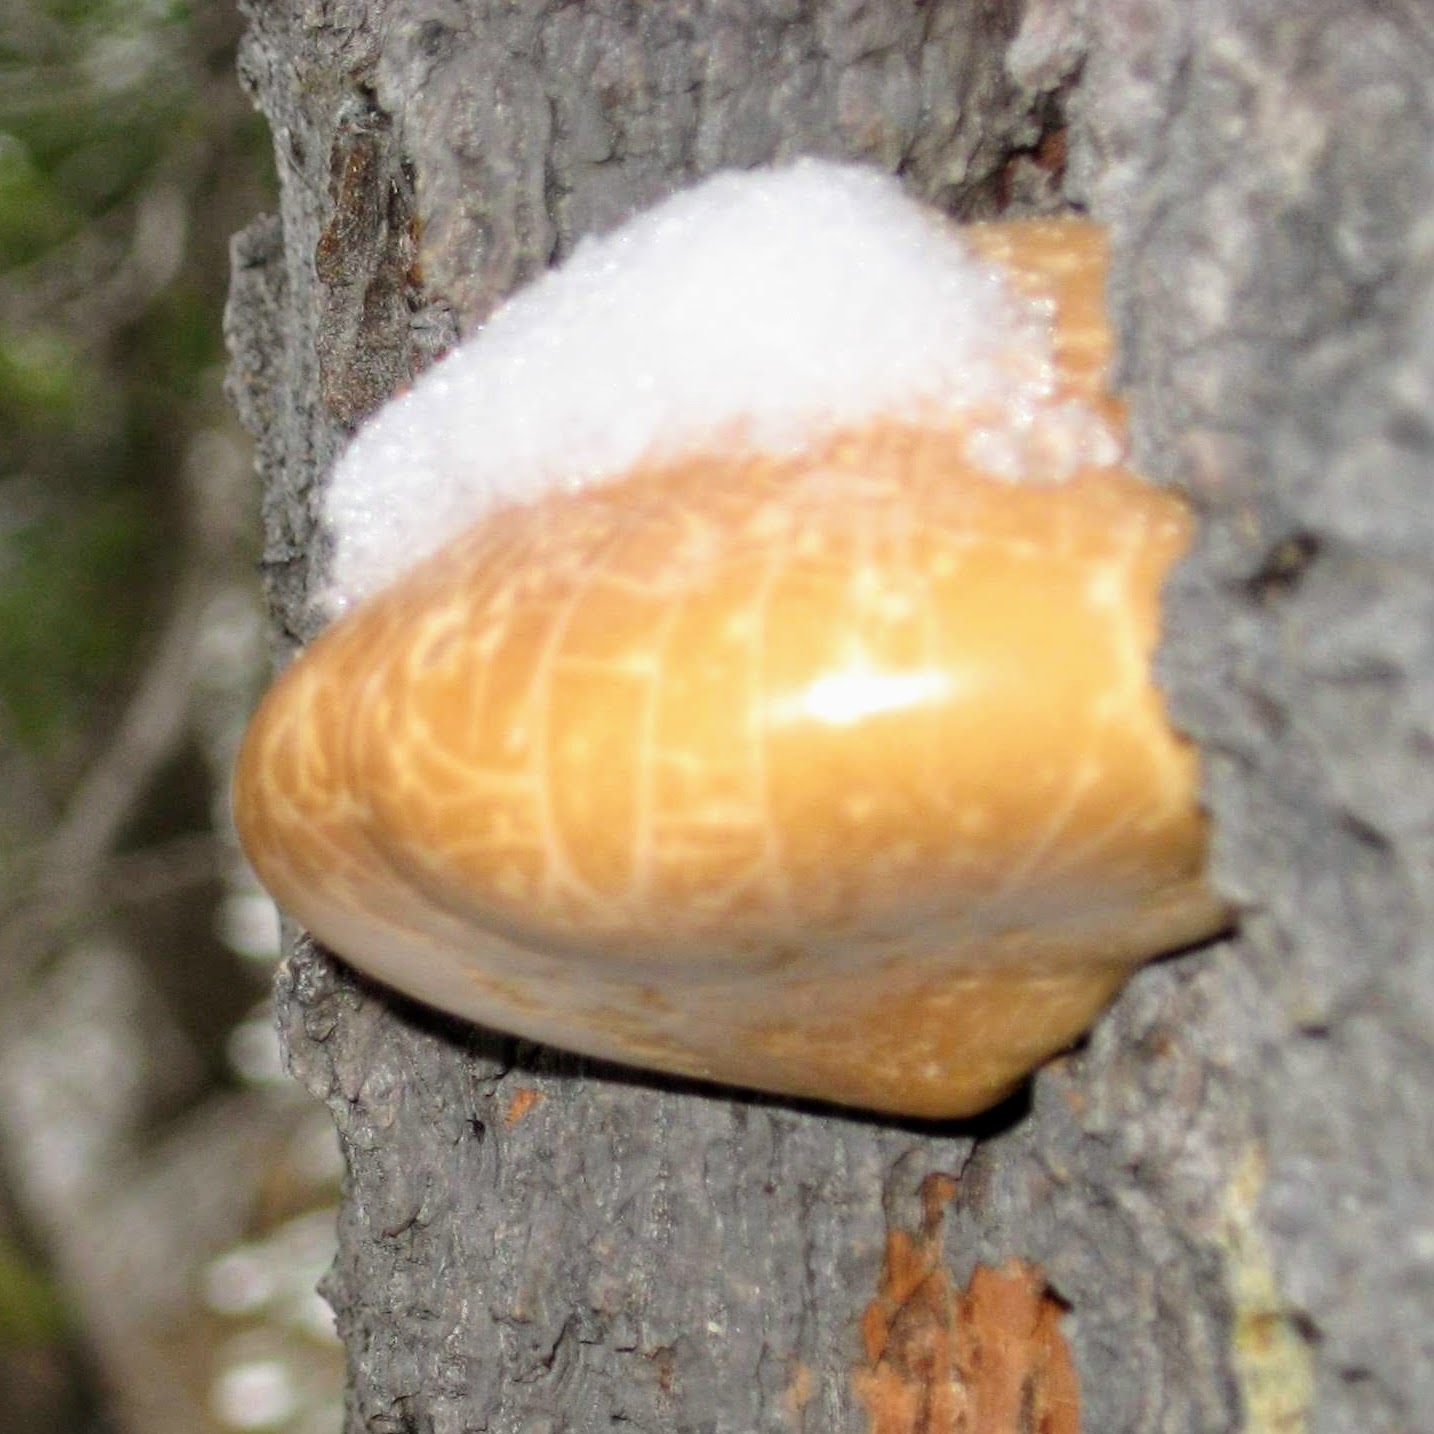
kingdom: Fungi
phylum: Basidiomycota
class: Agaricomycetes
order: Polyporales
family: Polyporaceae
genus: Cryptoporus
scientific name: Cryptoporus volvatus
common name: Veiled polypore
